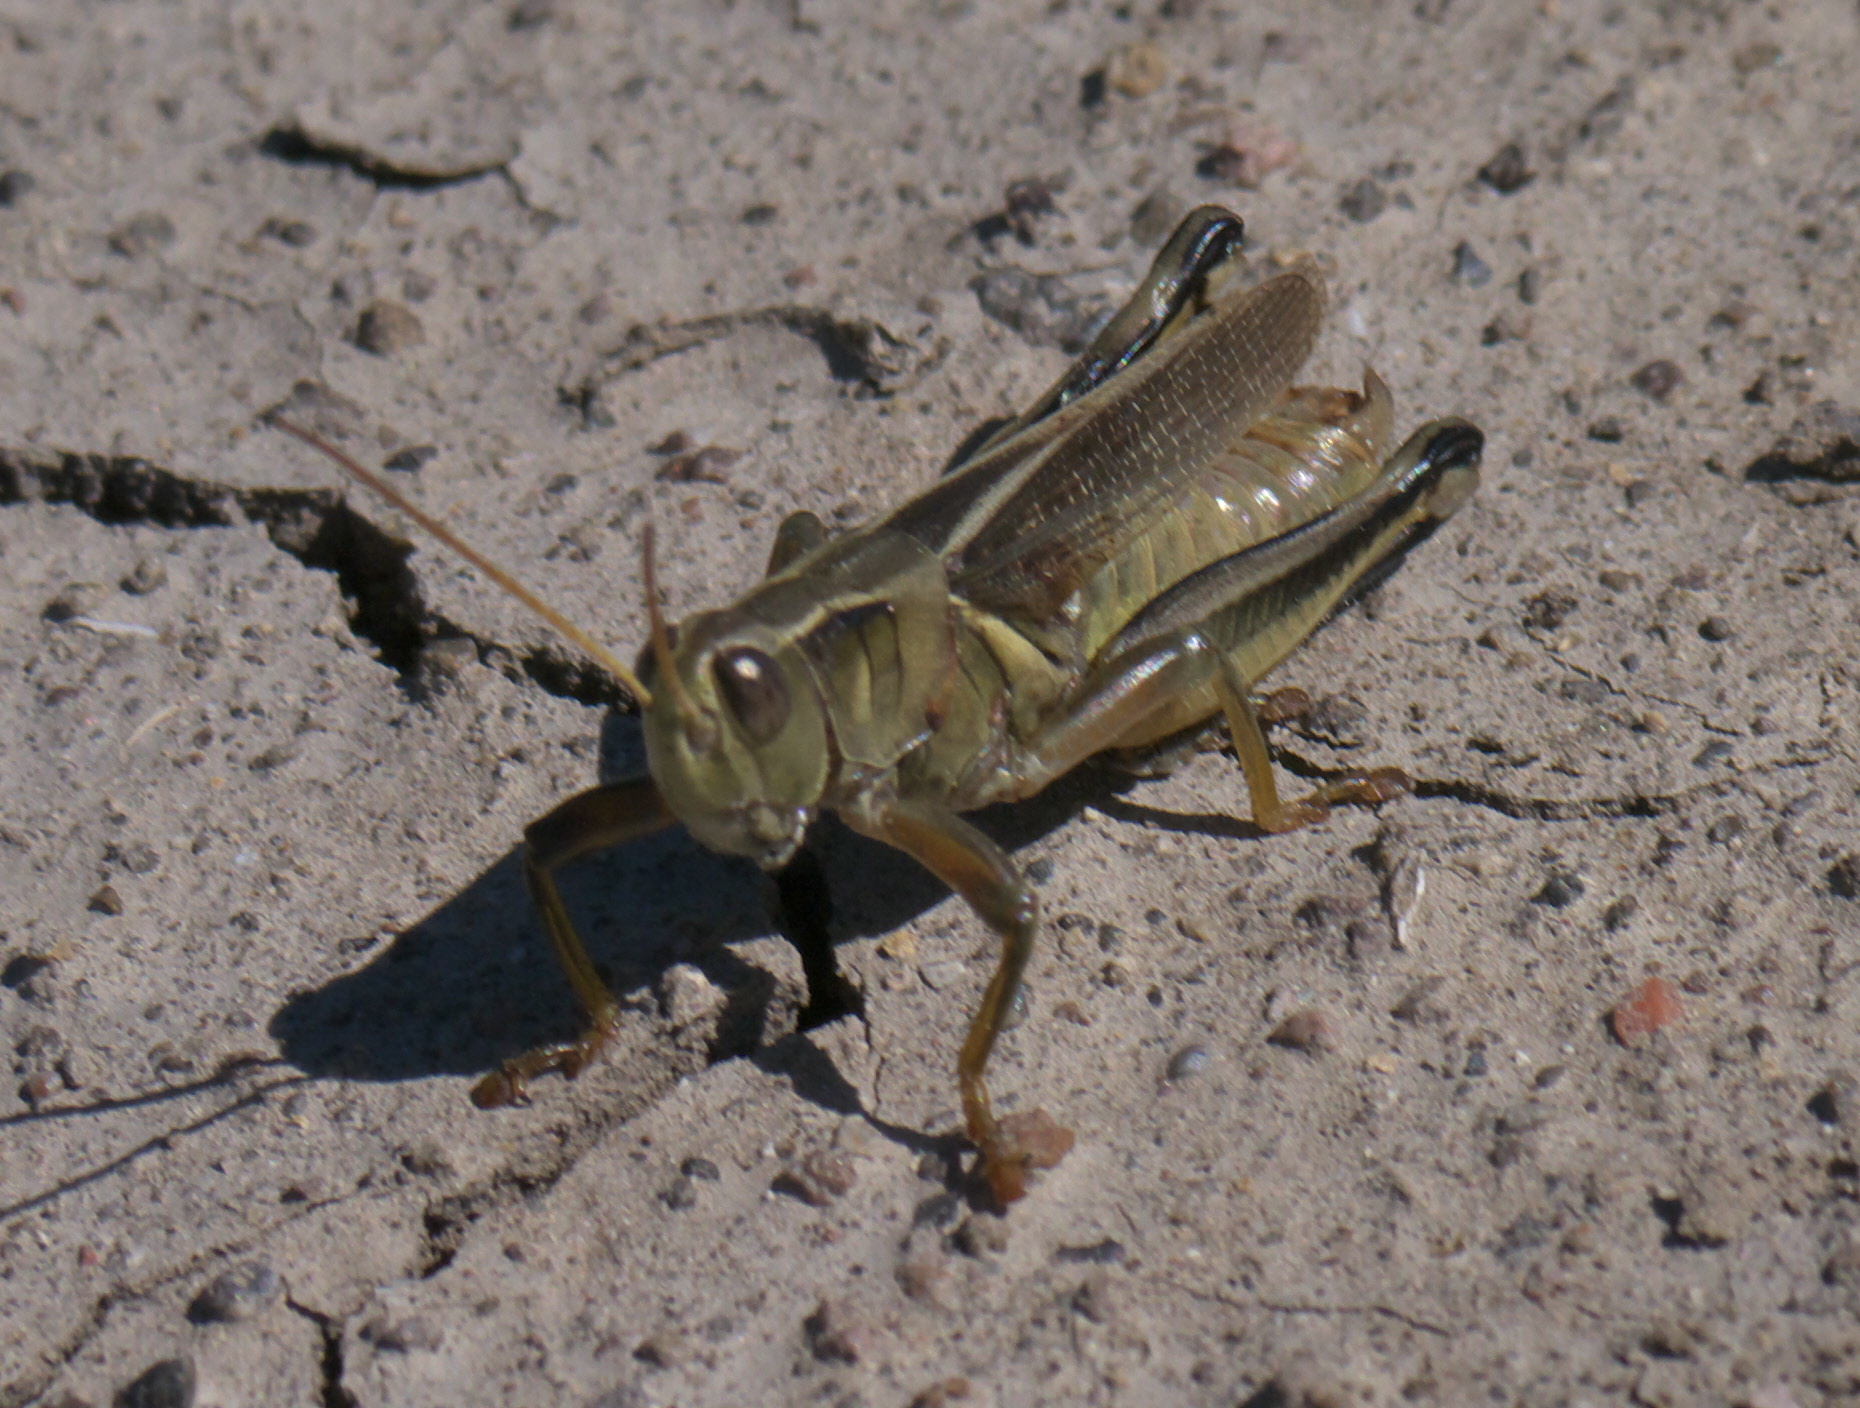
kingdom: Animalia
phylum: Arthropoda
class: Insecta
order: Orthoptera
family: Acrididae
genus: Melanoplus
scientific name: Melanoplus bivittatus
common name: Two-striped grasshopper
